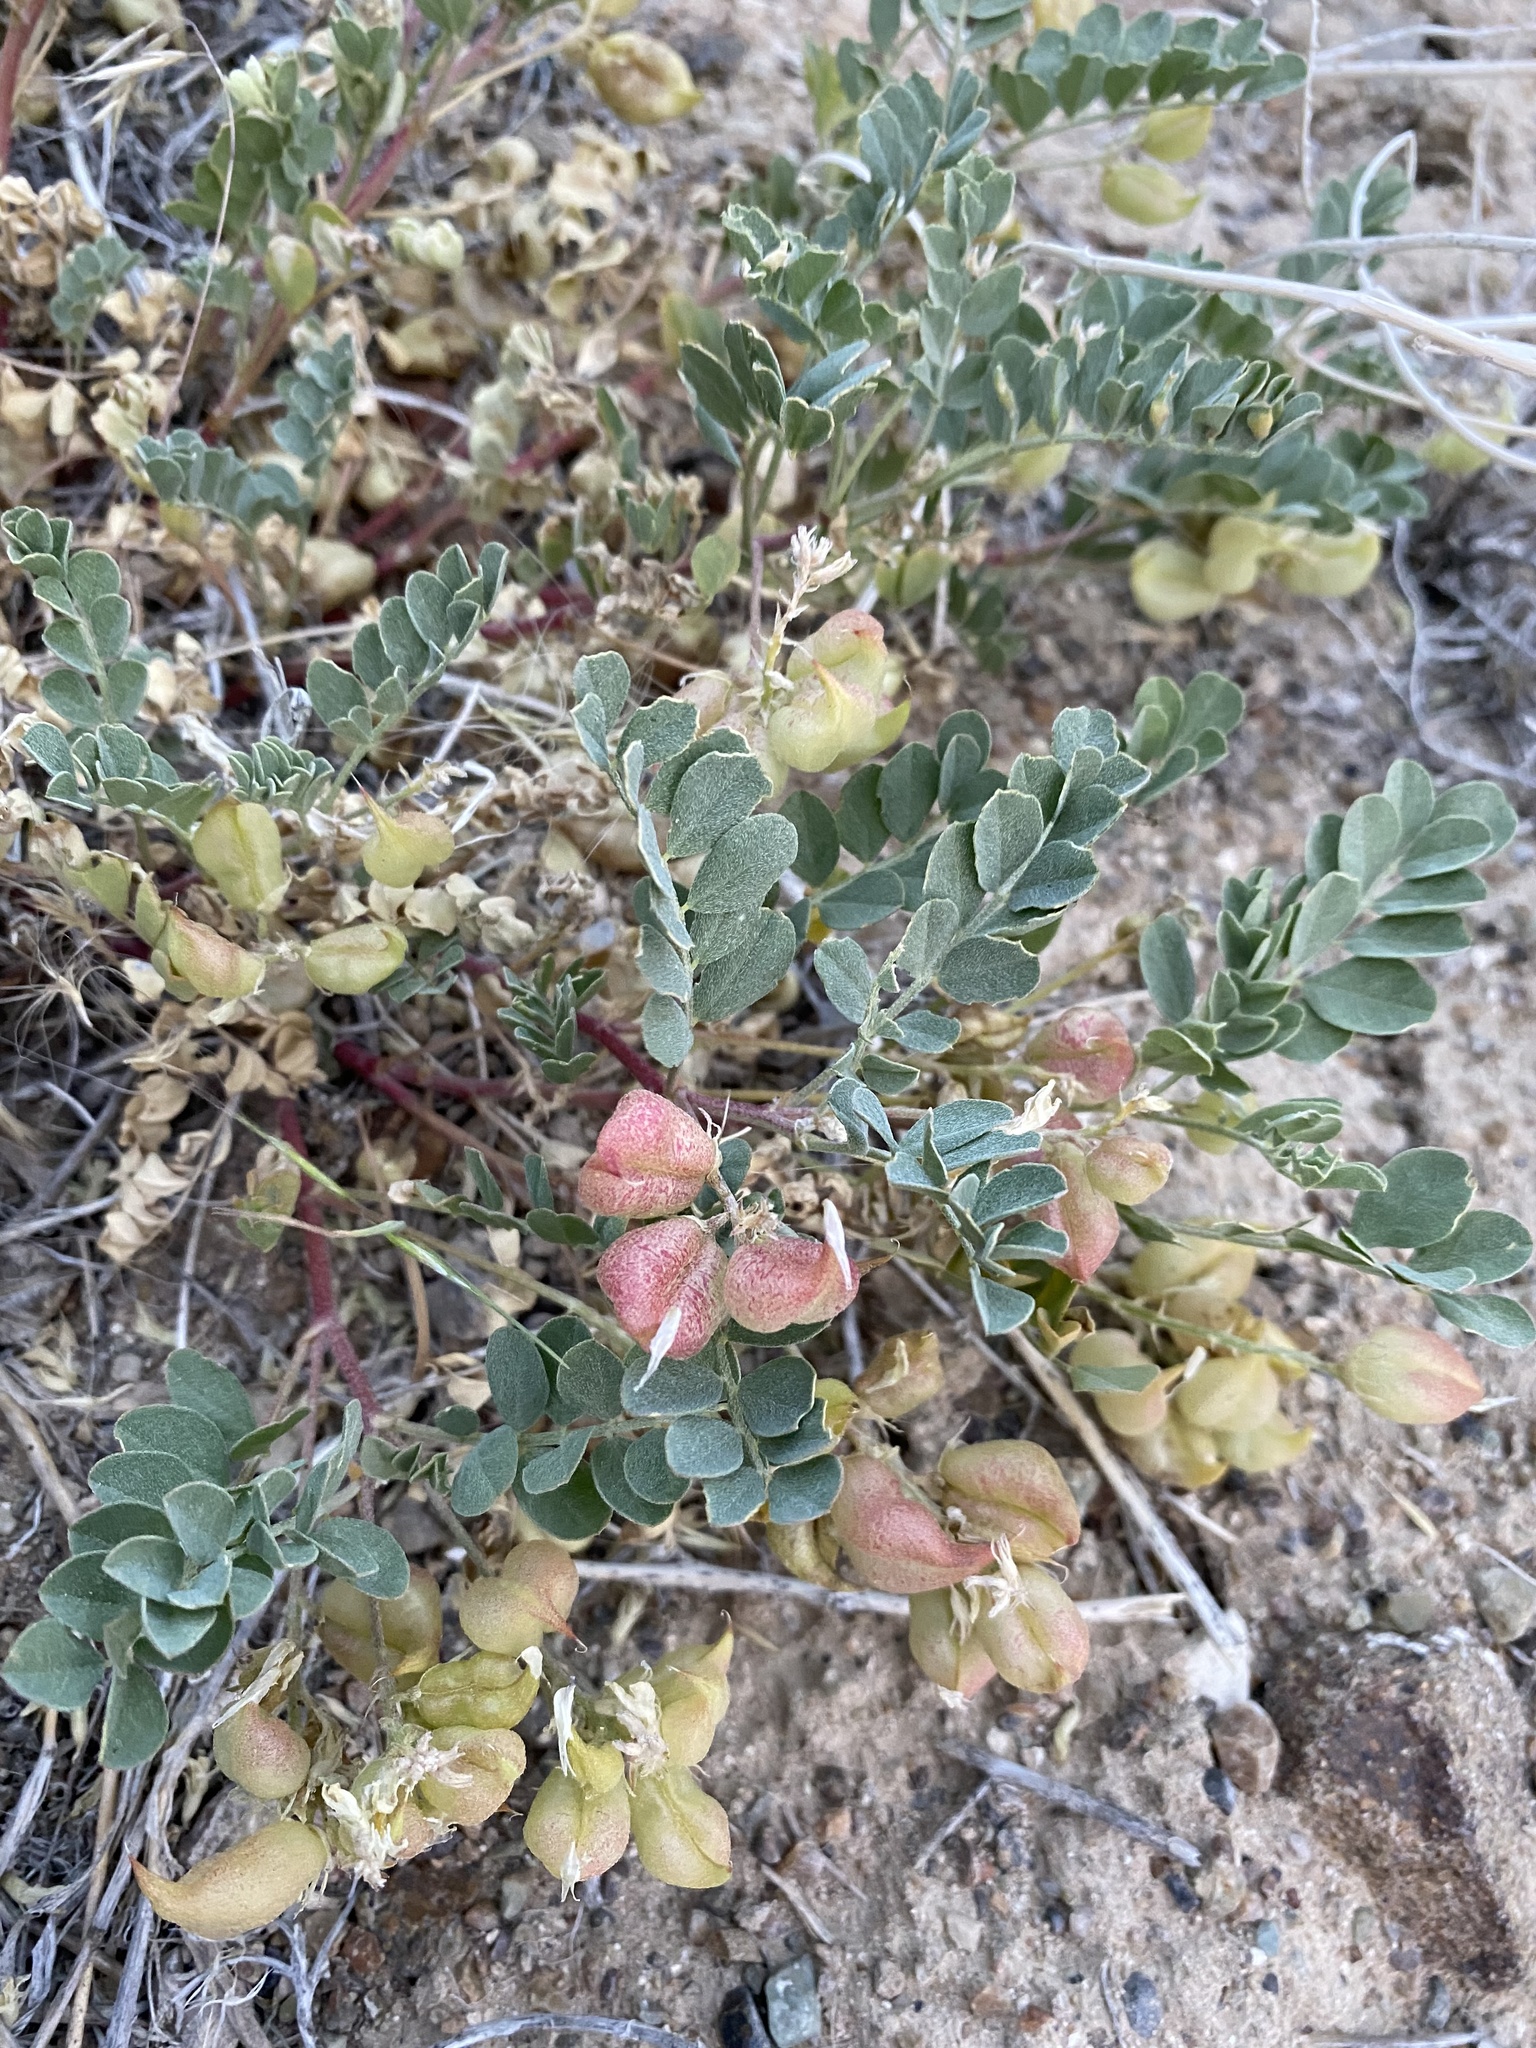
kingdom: Plantae
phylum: Tracheophyta
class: Magnoliopsida
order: Fabales
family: Fabaceae
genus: Astragalus
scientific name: Astragalus lentiginosus
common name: Freckled milkvetch
